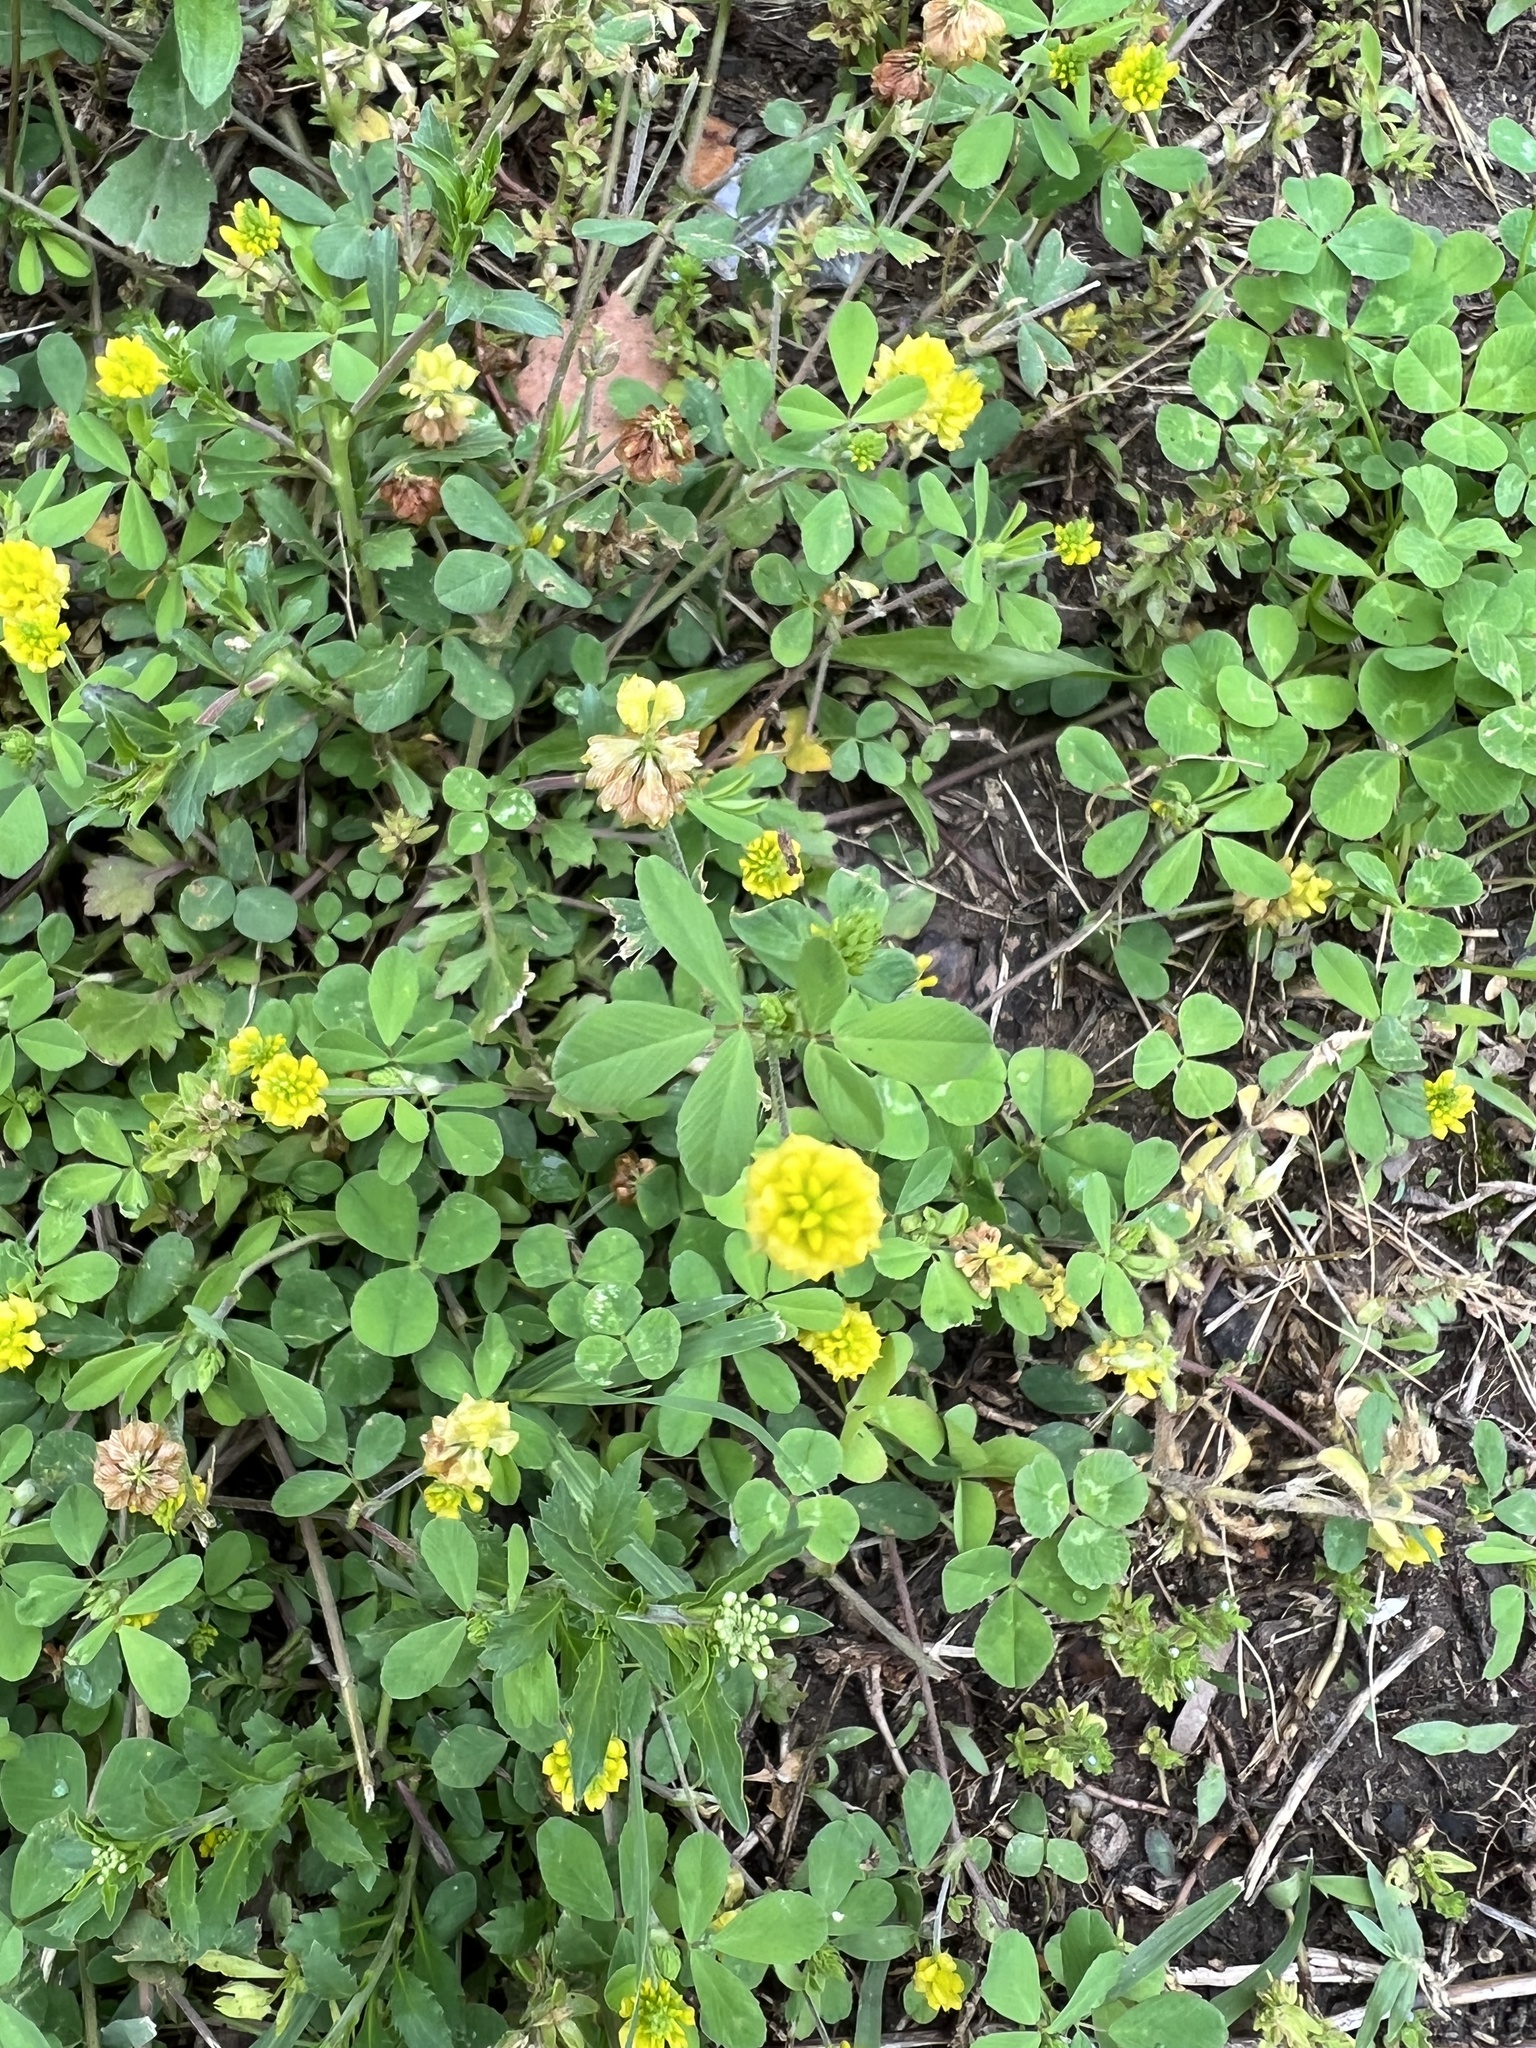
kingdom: Plantae
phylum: Tracheophyta
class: Magnoliopsida
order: Fabales
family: Fabaceae
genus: Trifolium
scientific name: Trifolium campestre
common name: Field clover
